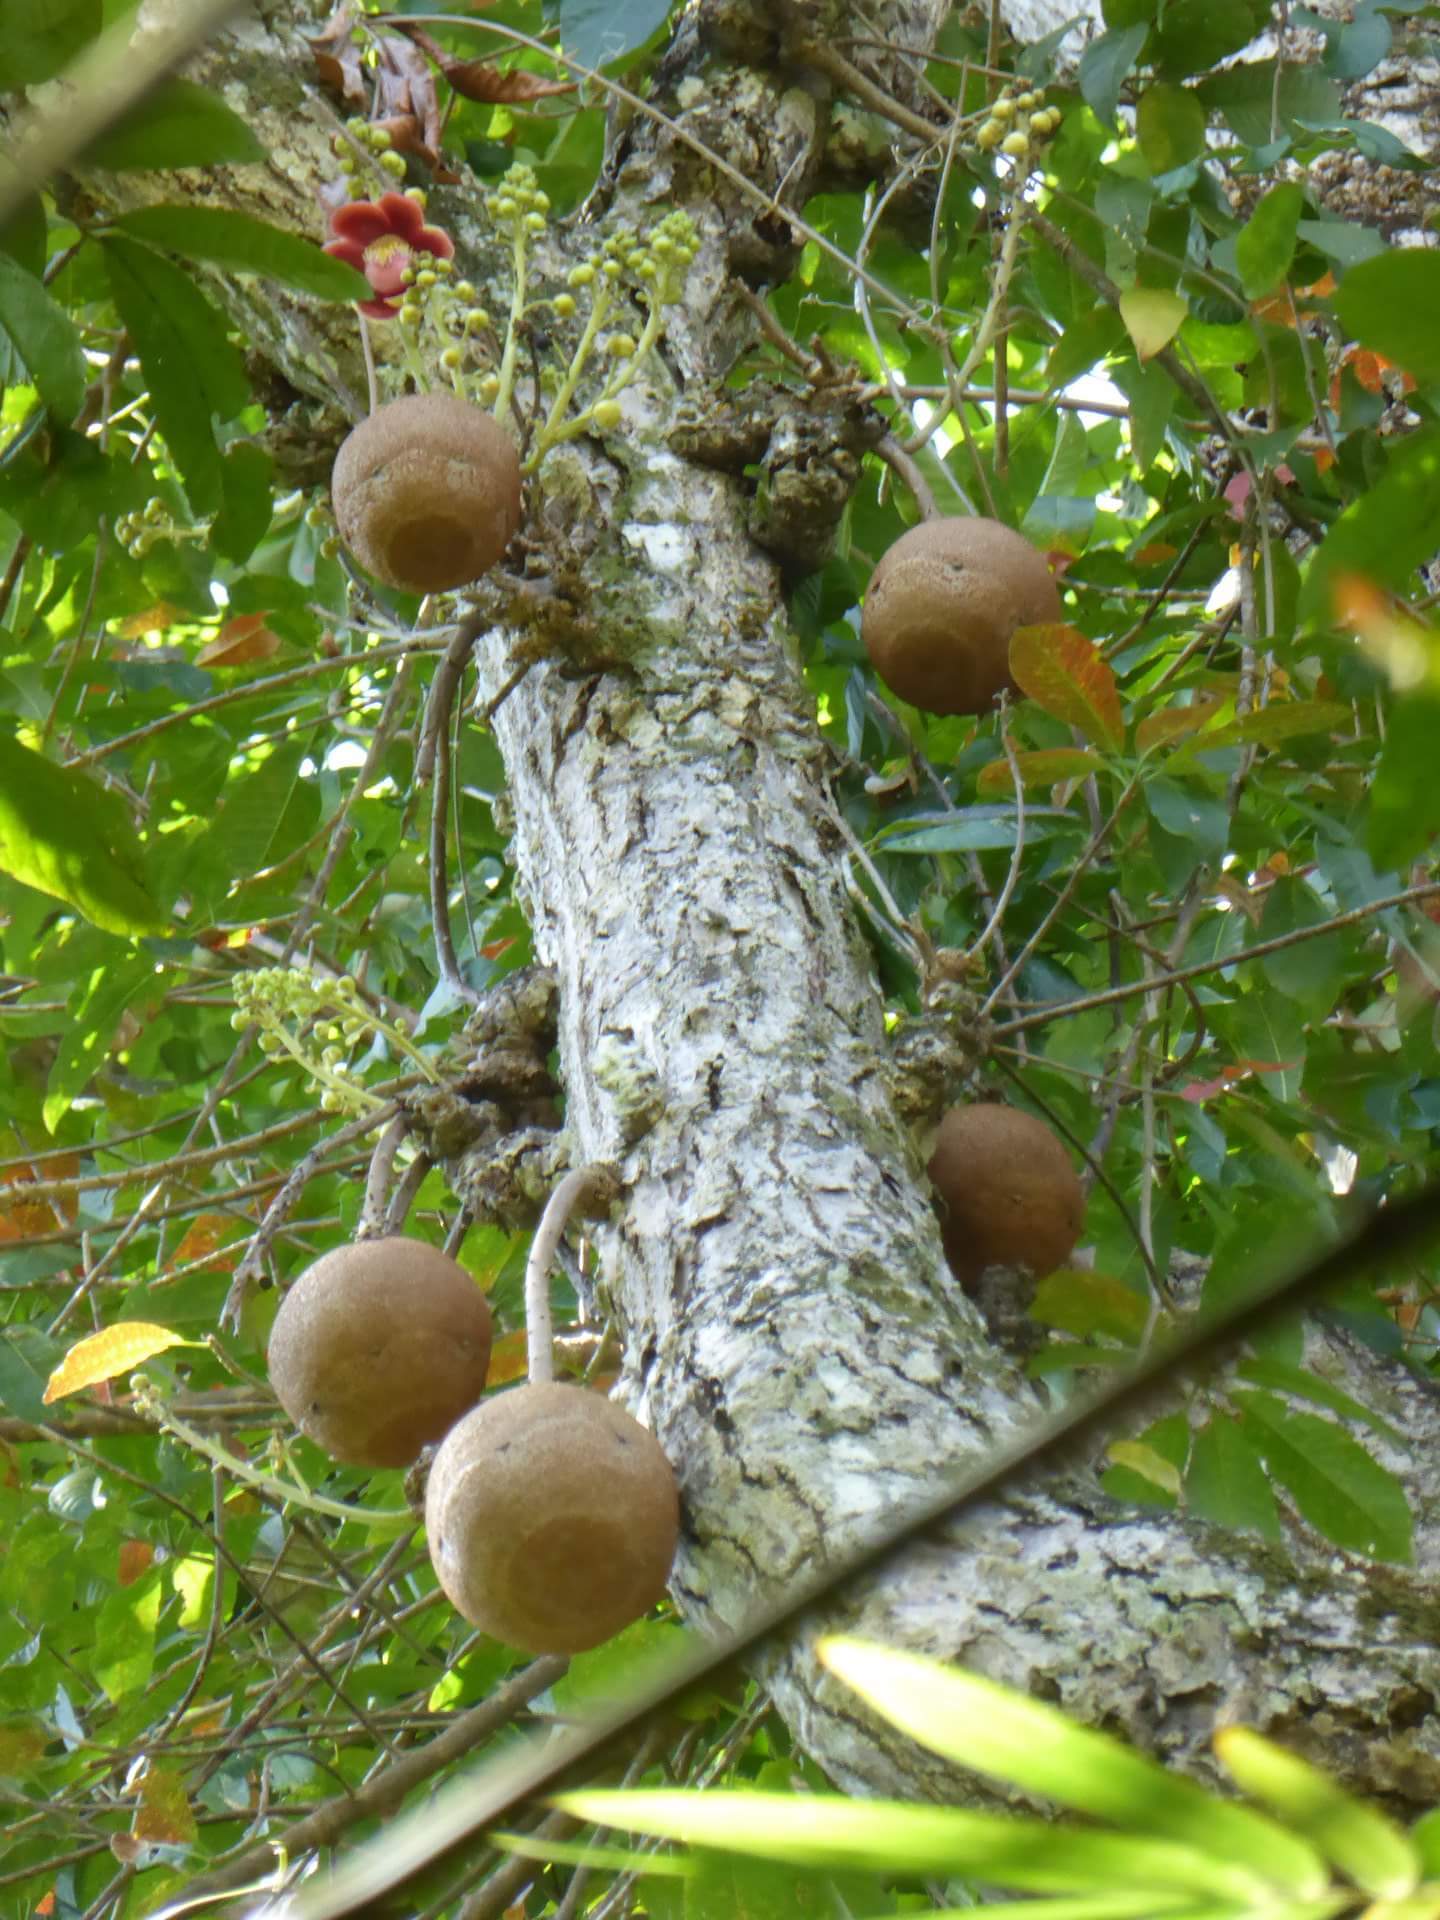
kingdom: Plantae
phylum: Tracheophyta
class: Magnoliopsida
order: Ericales
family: Lecythidaceae
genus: Couroupita
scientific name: Couroupita guianensis
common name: Cannonball tree
